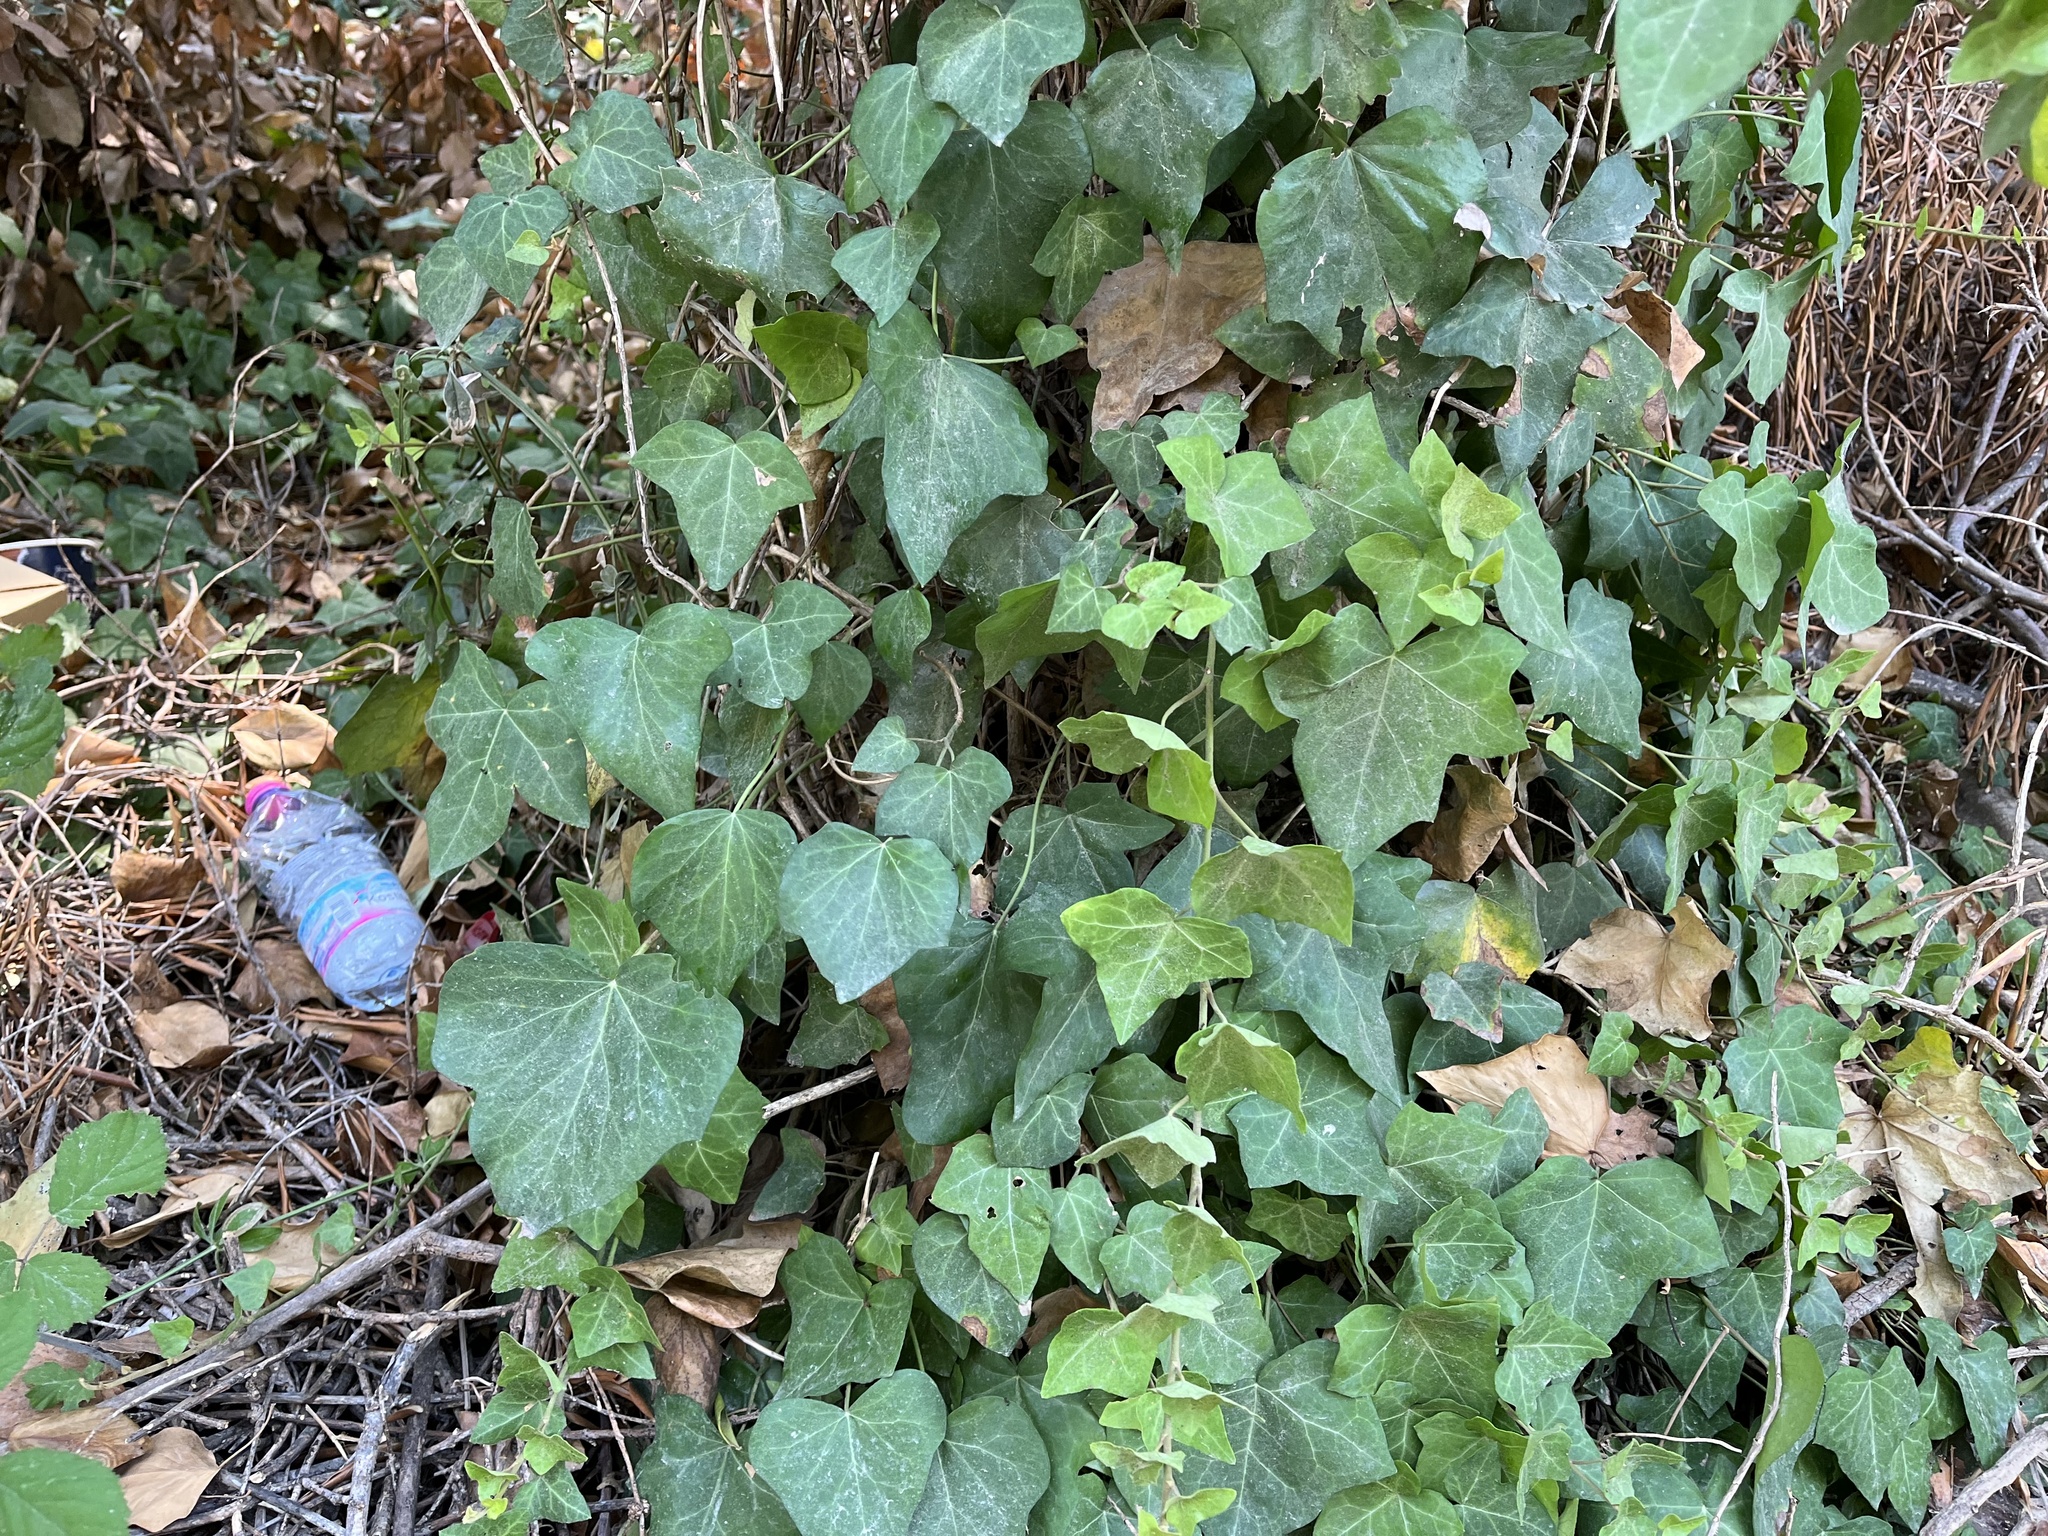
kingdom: Plantae
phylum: Tracheophyta
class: Magnoliopsida
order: Apiales
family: Araliaceae
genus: Hedera
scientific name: Hedera helix
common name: Ivy
